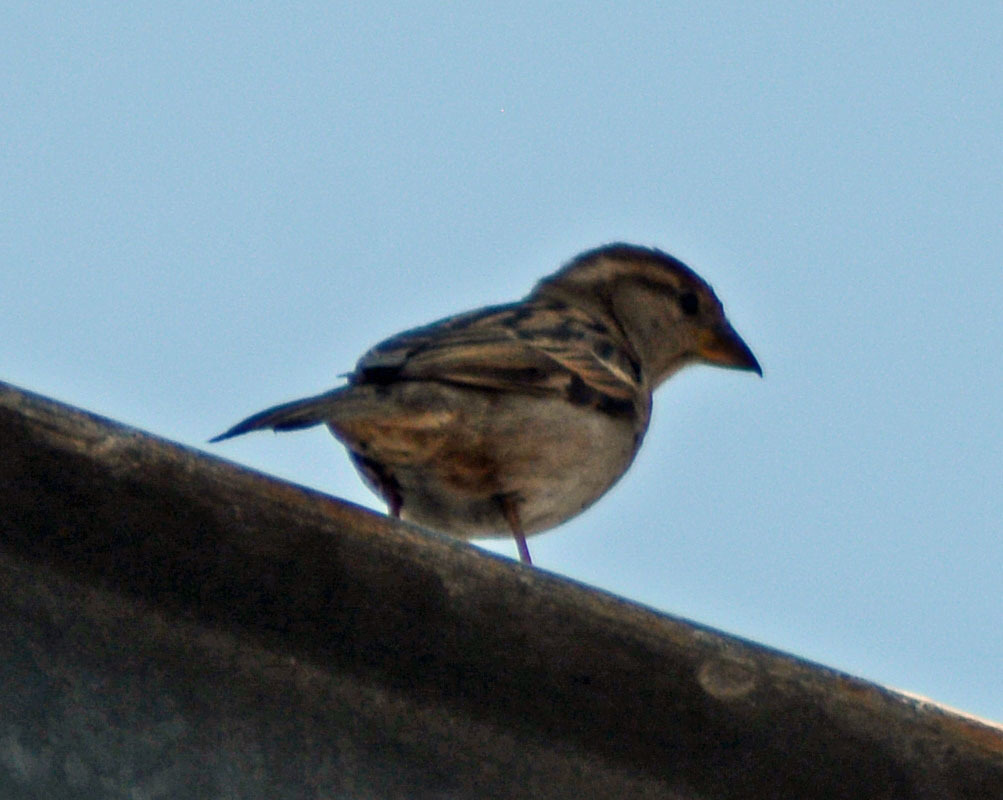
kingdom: Animalia
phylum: Chordata
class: Aves
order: Passeriformes
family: Passeridae
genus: Passer
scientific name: Passer domesticus
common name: House sparrow
